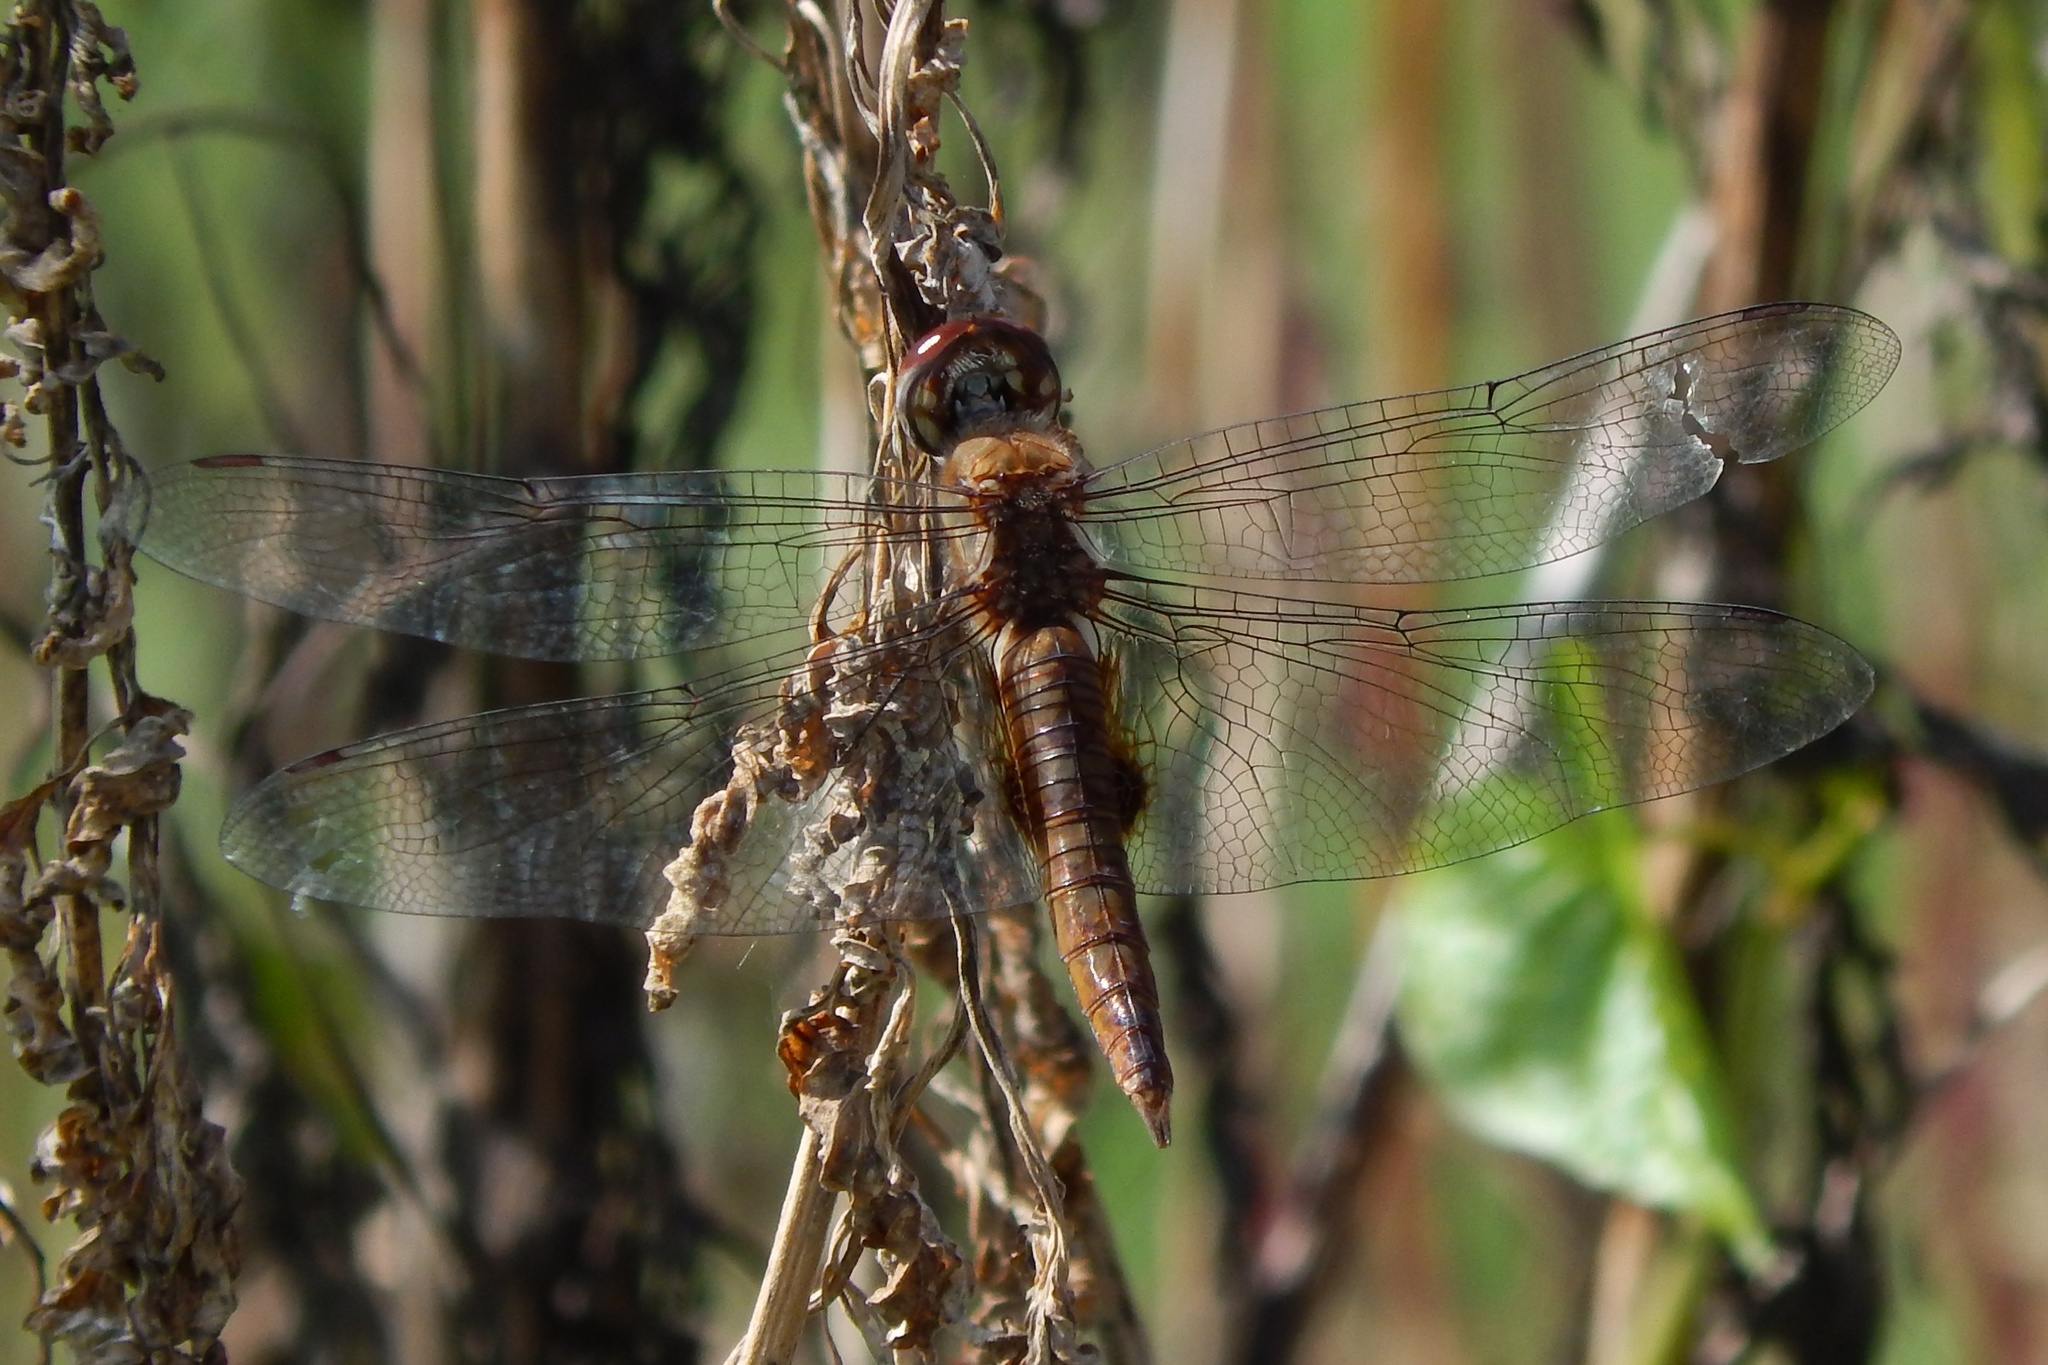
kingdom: Animalia
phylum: Arthropoda
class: Insecta
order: Odonata
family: Libellulidae
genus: Pantala
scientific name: Pantala hymenaea
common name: Spot-winged glider
